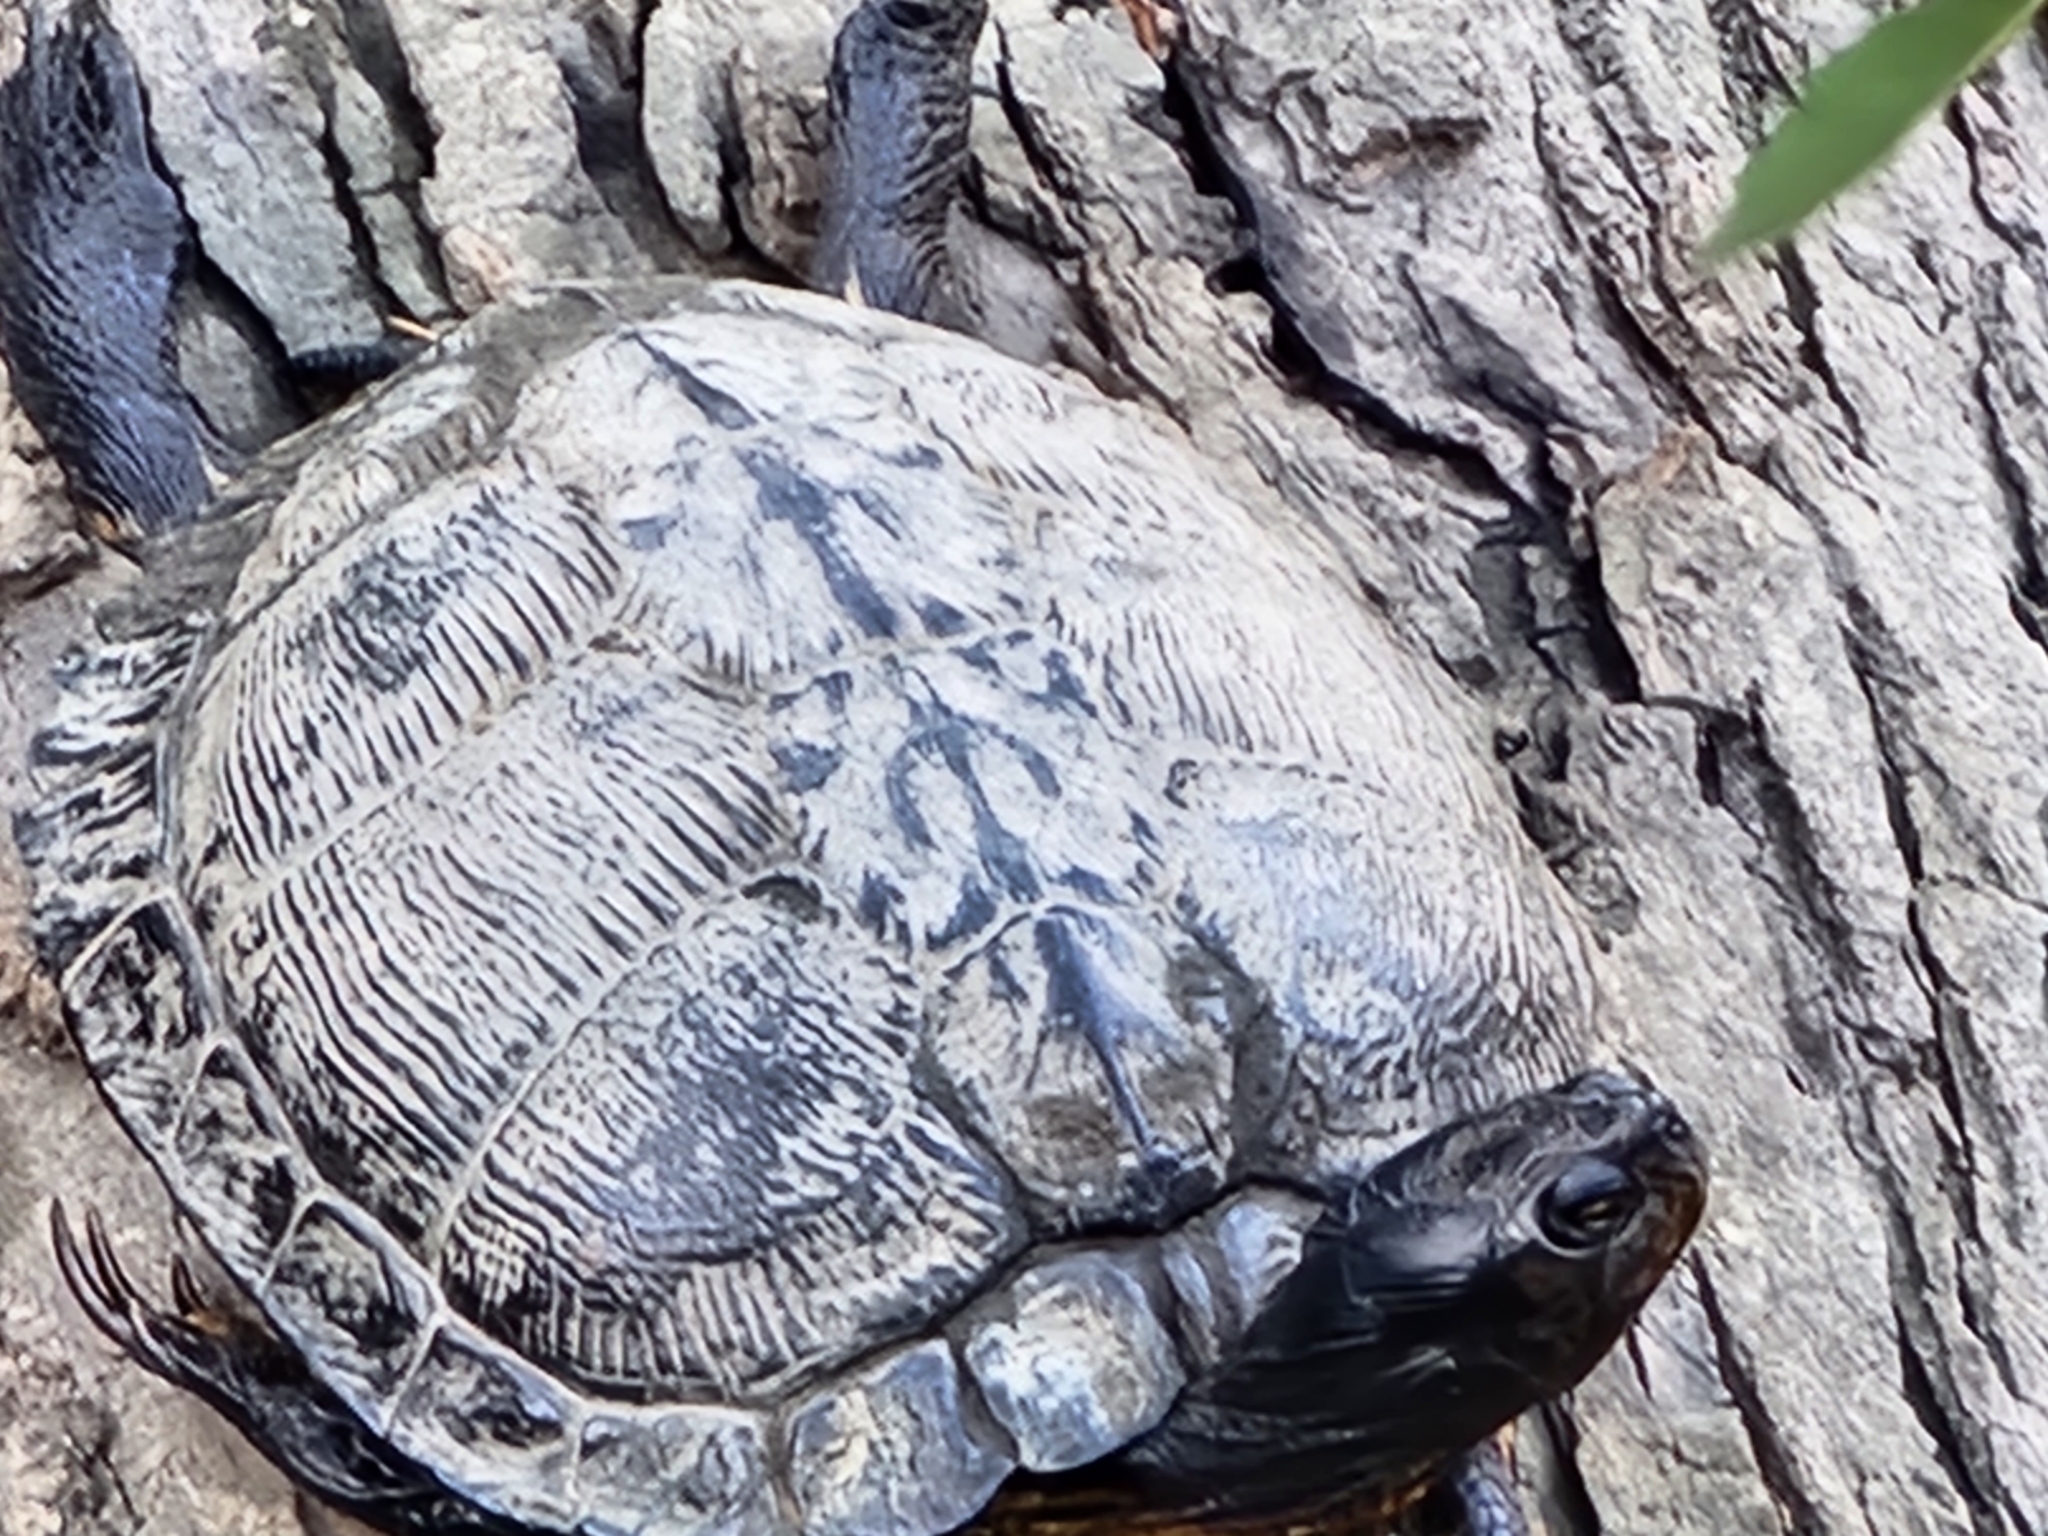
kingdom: Animalia
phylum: Chordata
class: Testudines
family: Emydidae
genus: Trachemys
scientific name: Trachemys scripta
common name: Slider
